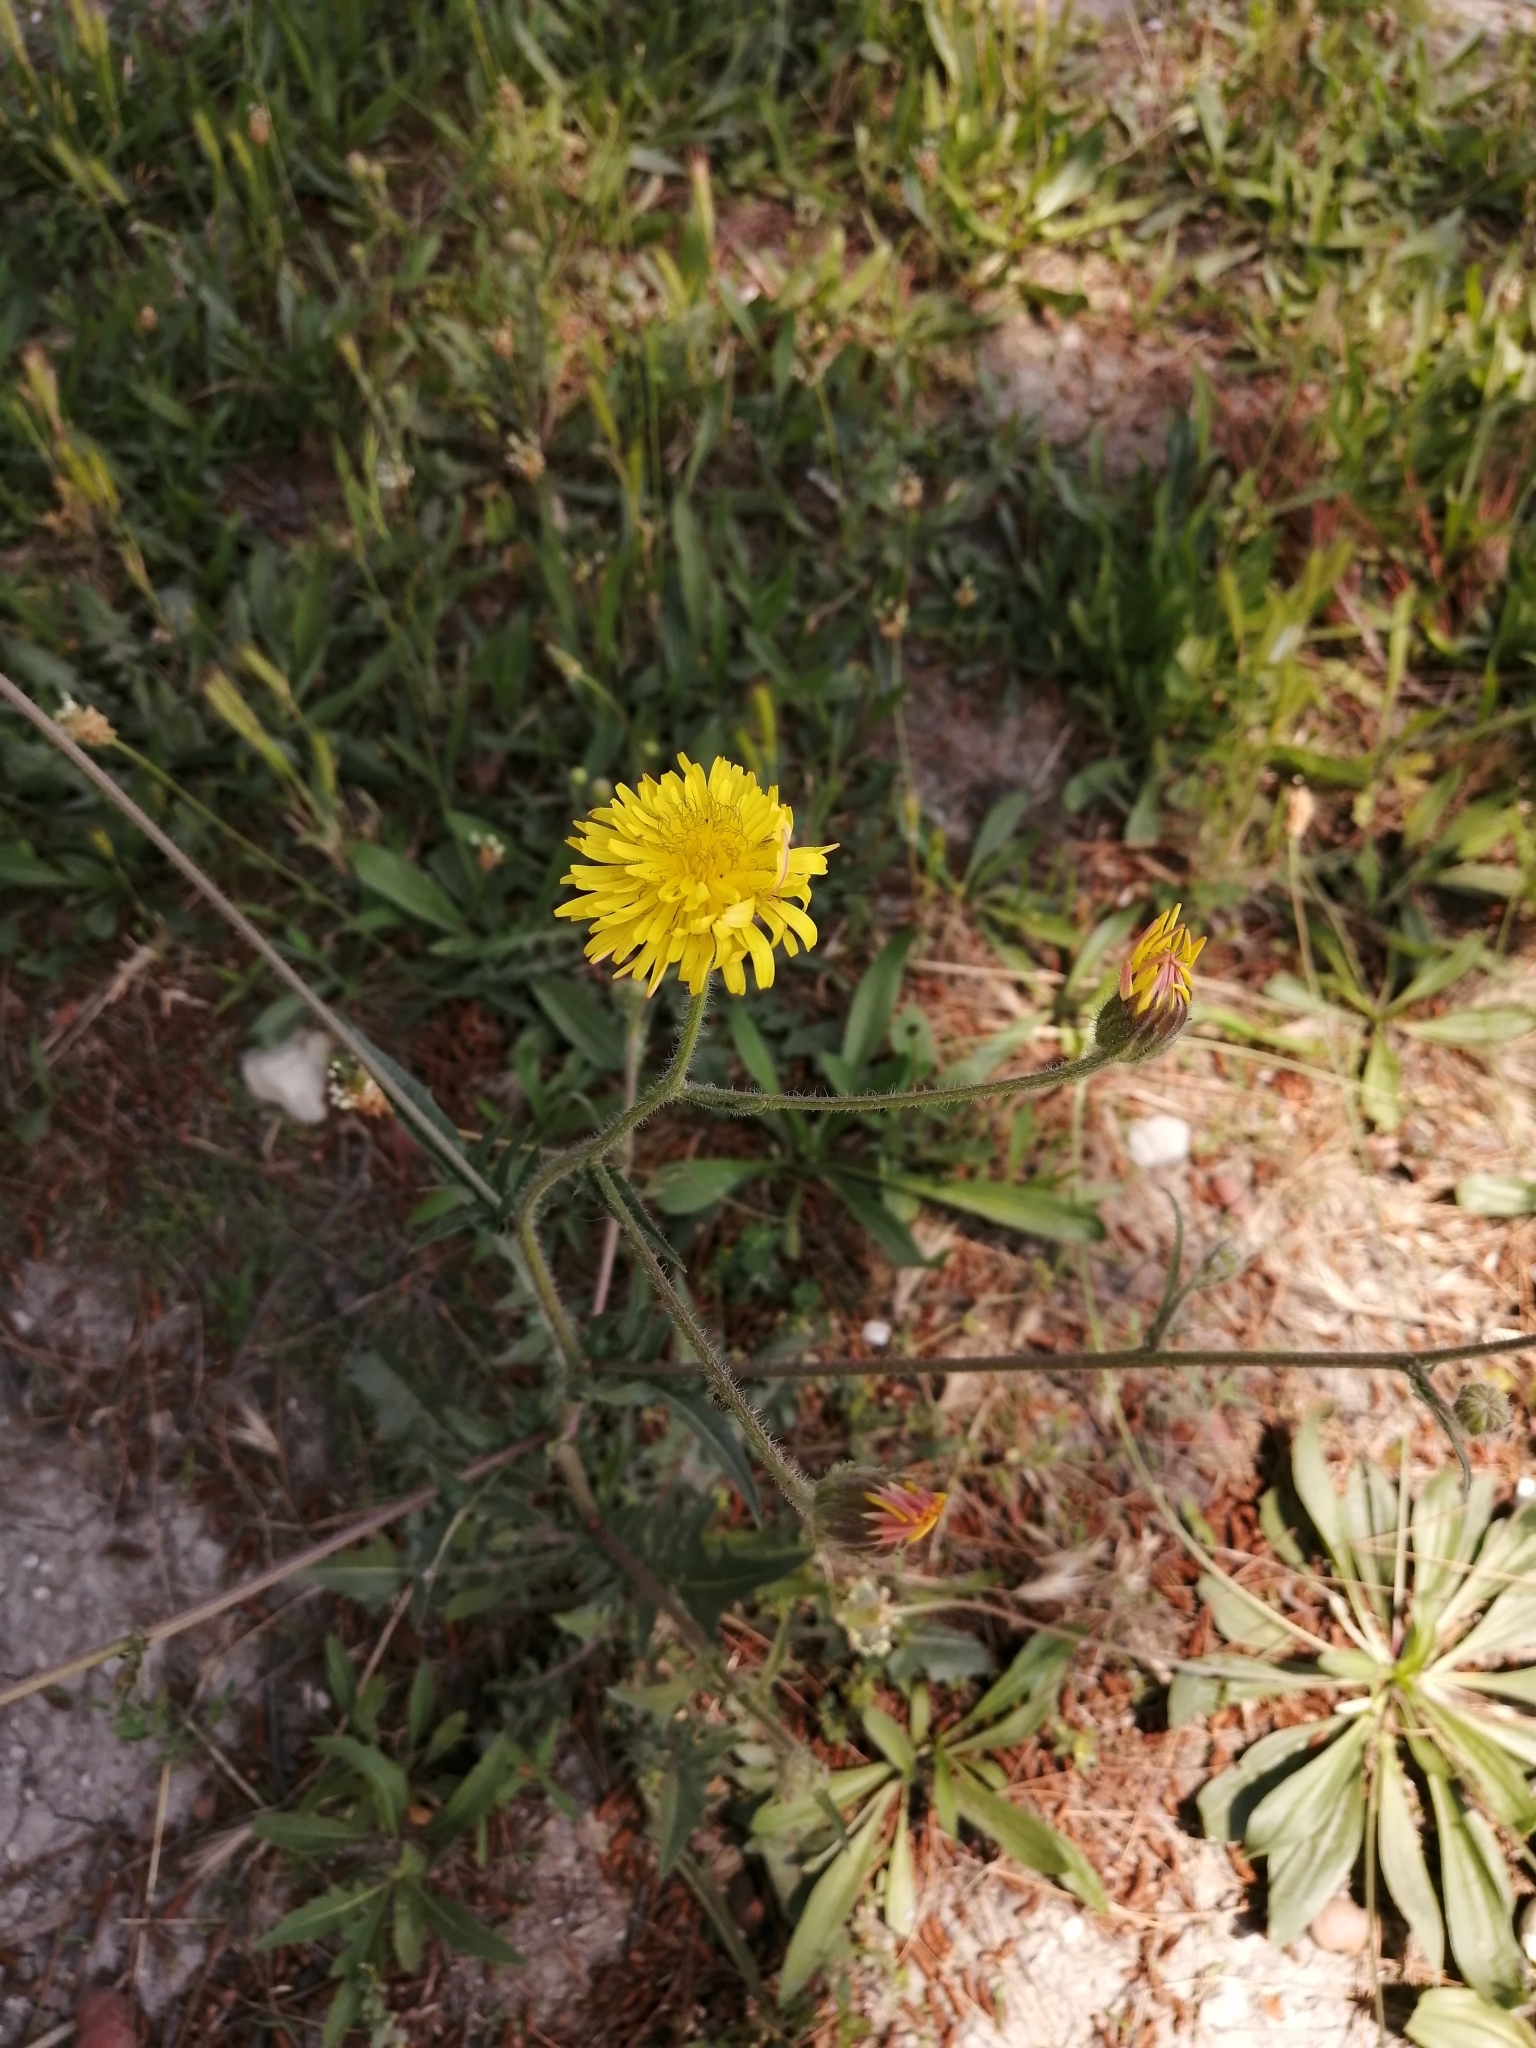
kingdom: Plantae
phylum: Tracheophyta
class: Magnoliopsida
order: Asterales
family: Asteraceae
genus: Crepis
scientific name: Crepis foetida
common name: Stinking hawk's-beard
